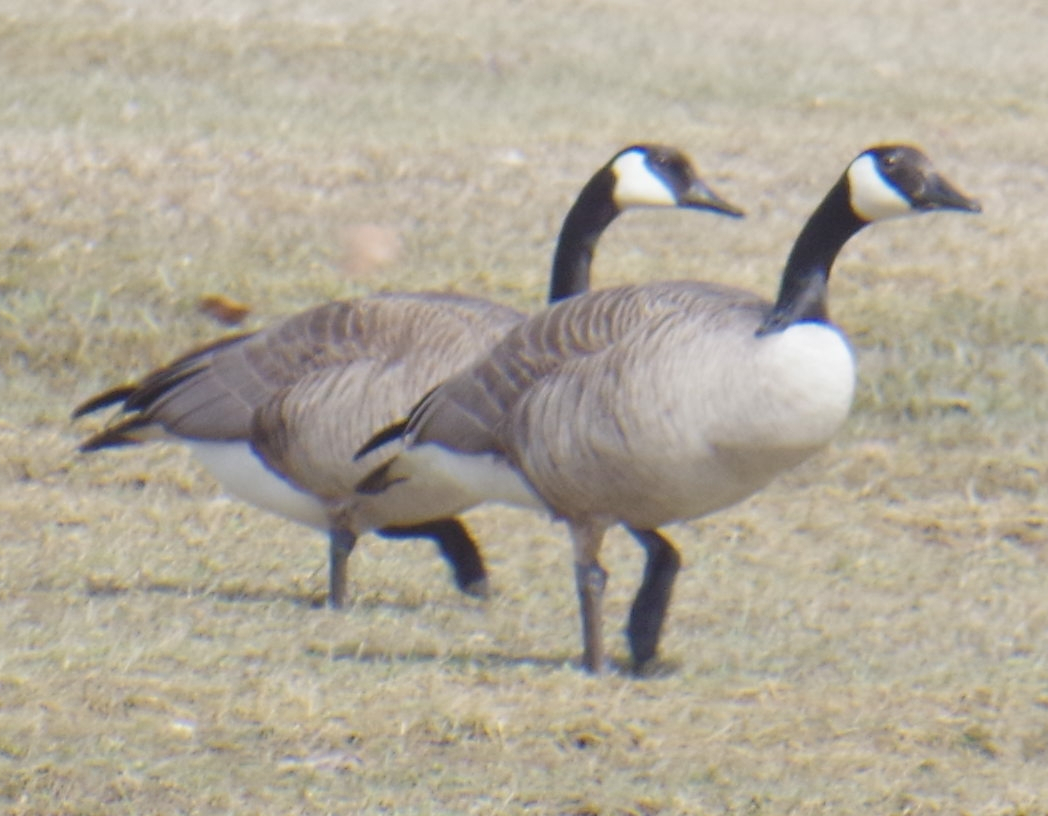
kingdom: Animalia
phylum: Chordata
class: Aves
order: Anseriformes
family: Anatidae
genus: Branta
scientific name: Branta canadensis
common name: Canada goose
